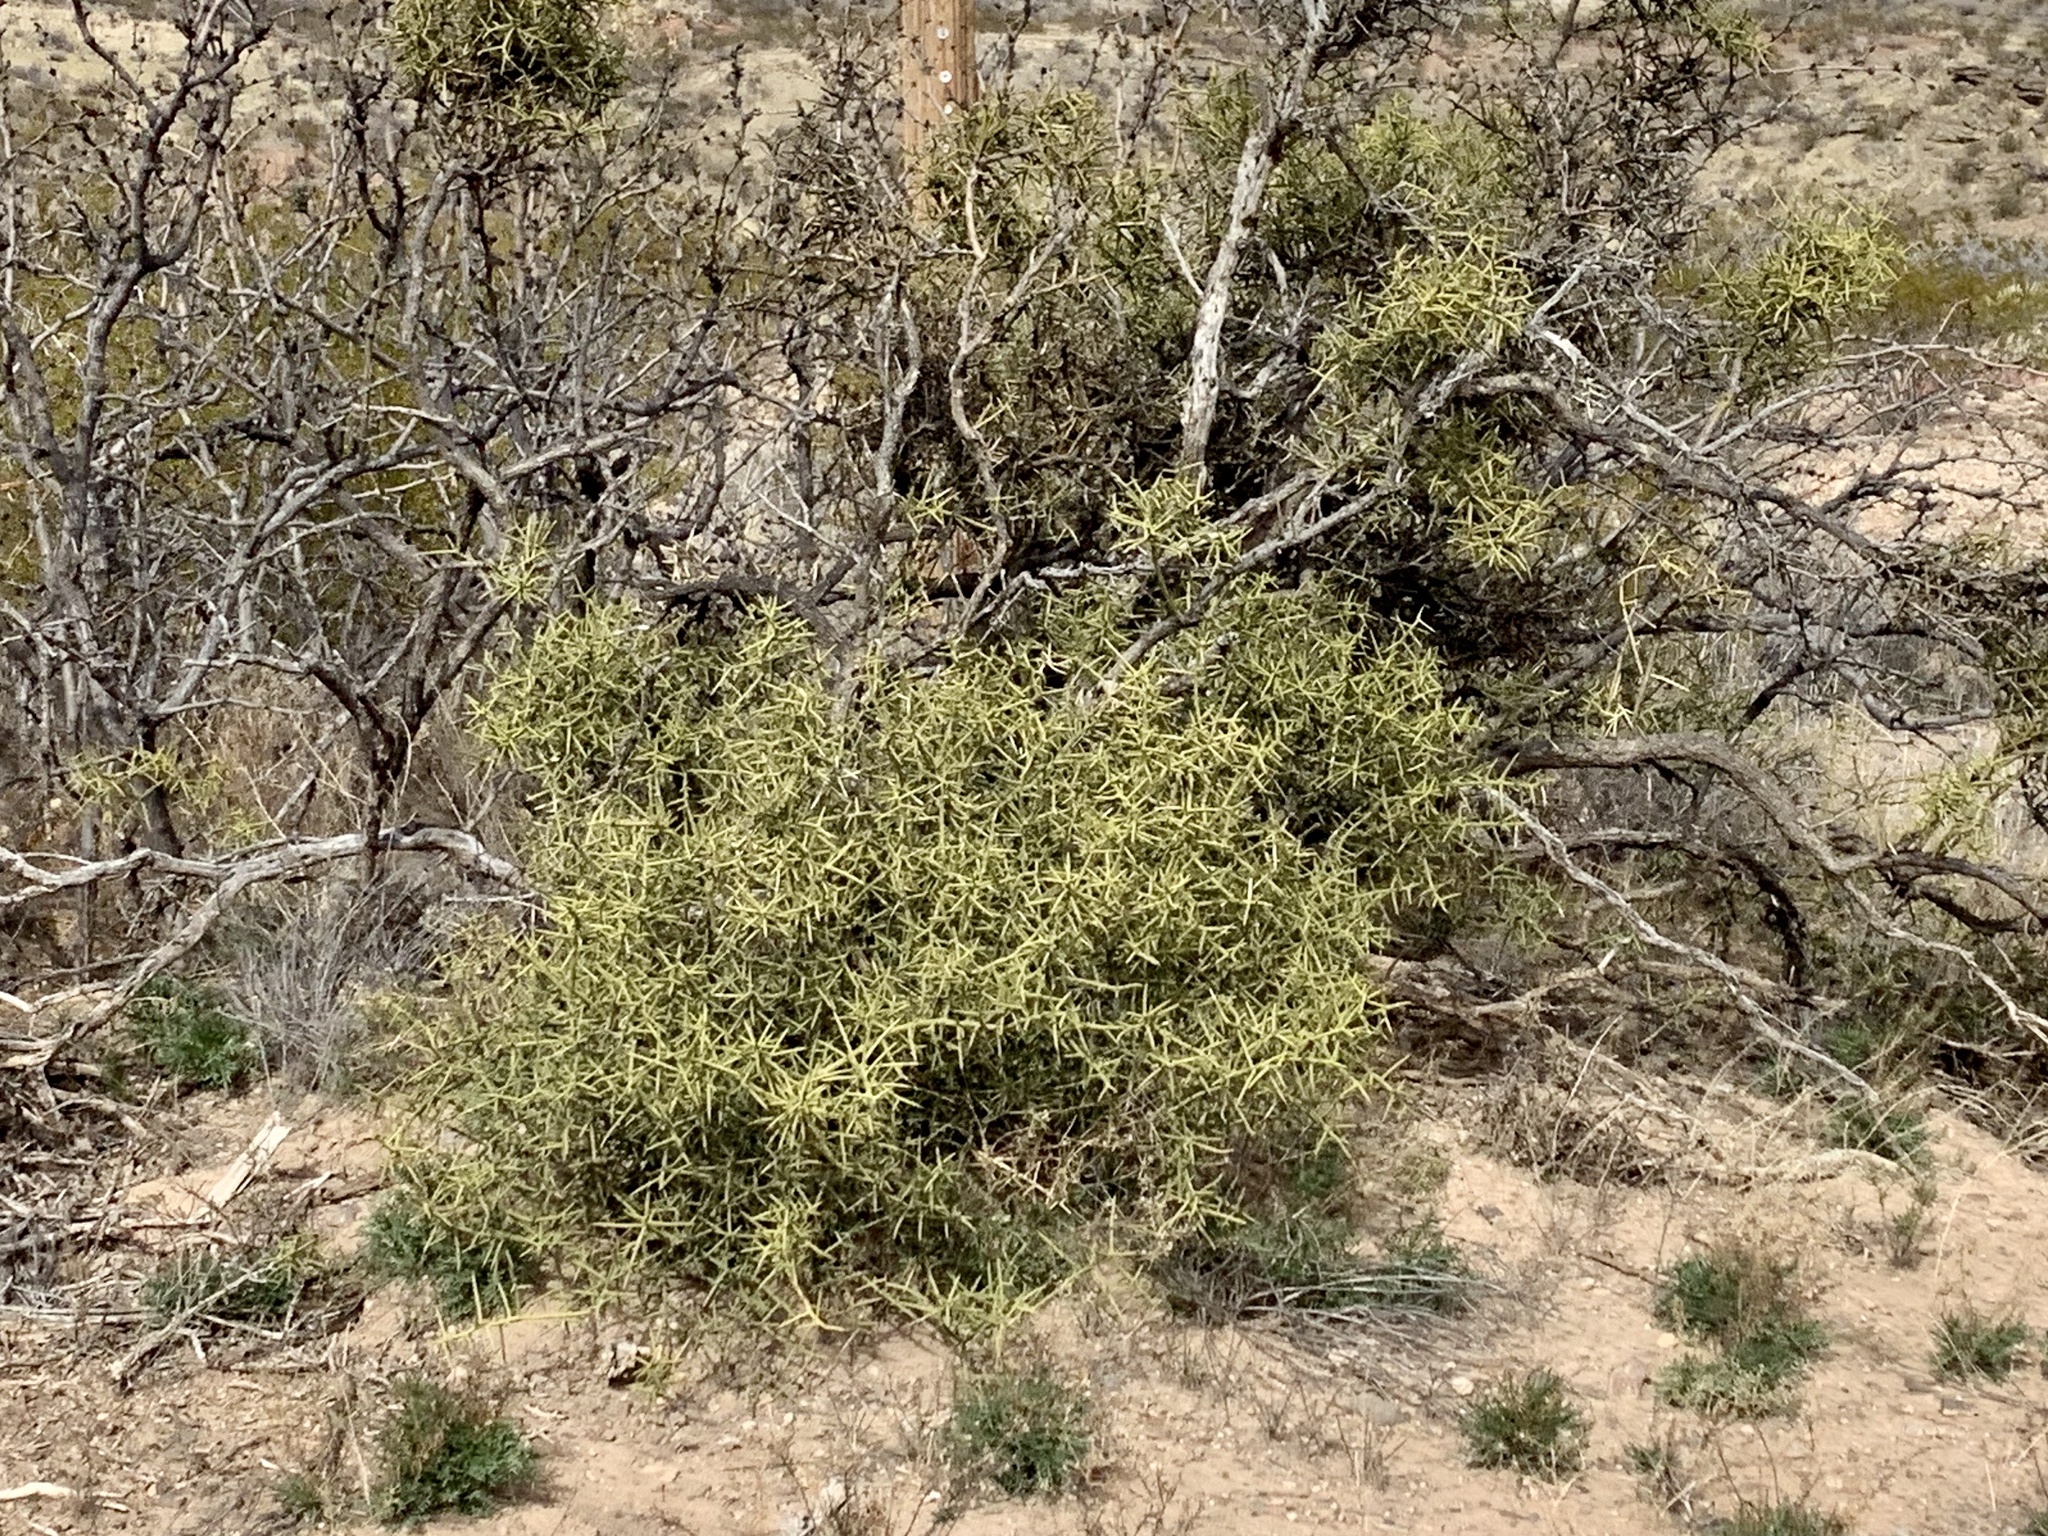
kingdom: Plantae
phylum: Tracheophyta
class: Magnoliopsida
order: Brassicales
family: Koeberliniaceae
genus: Koeberlinia
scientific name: Koeberlinia spinosa
